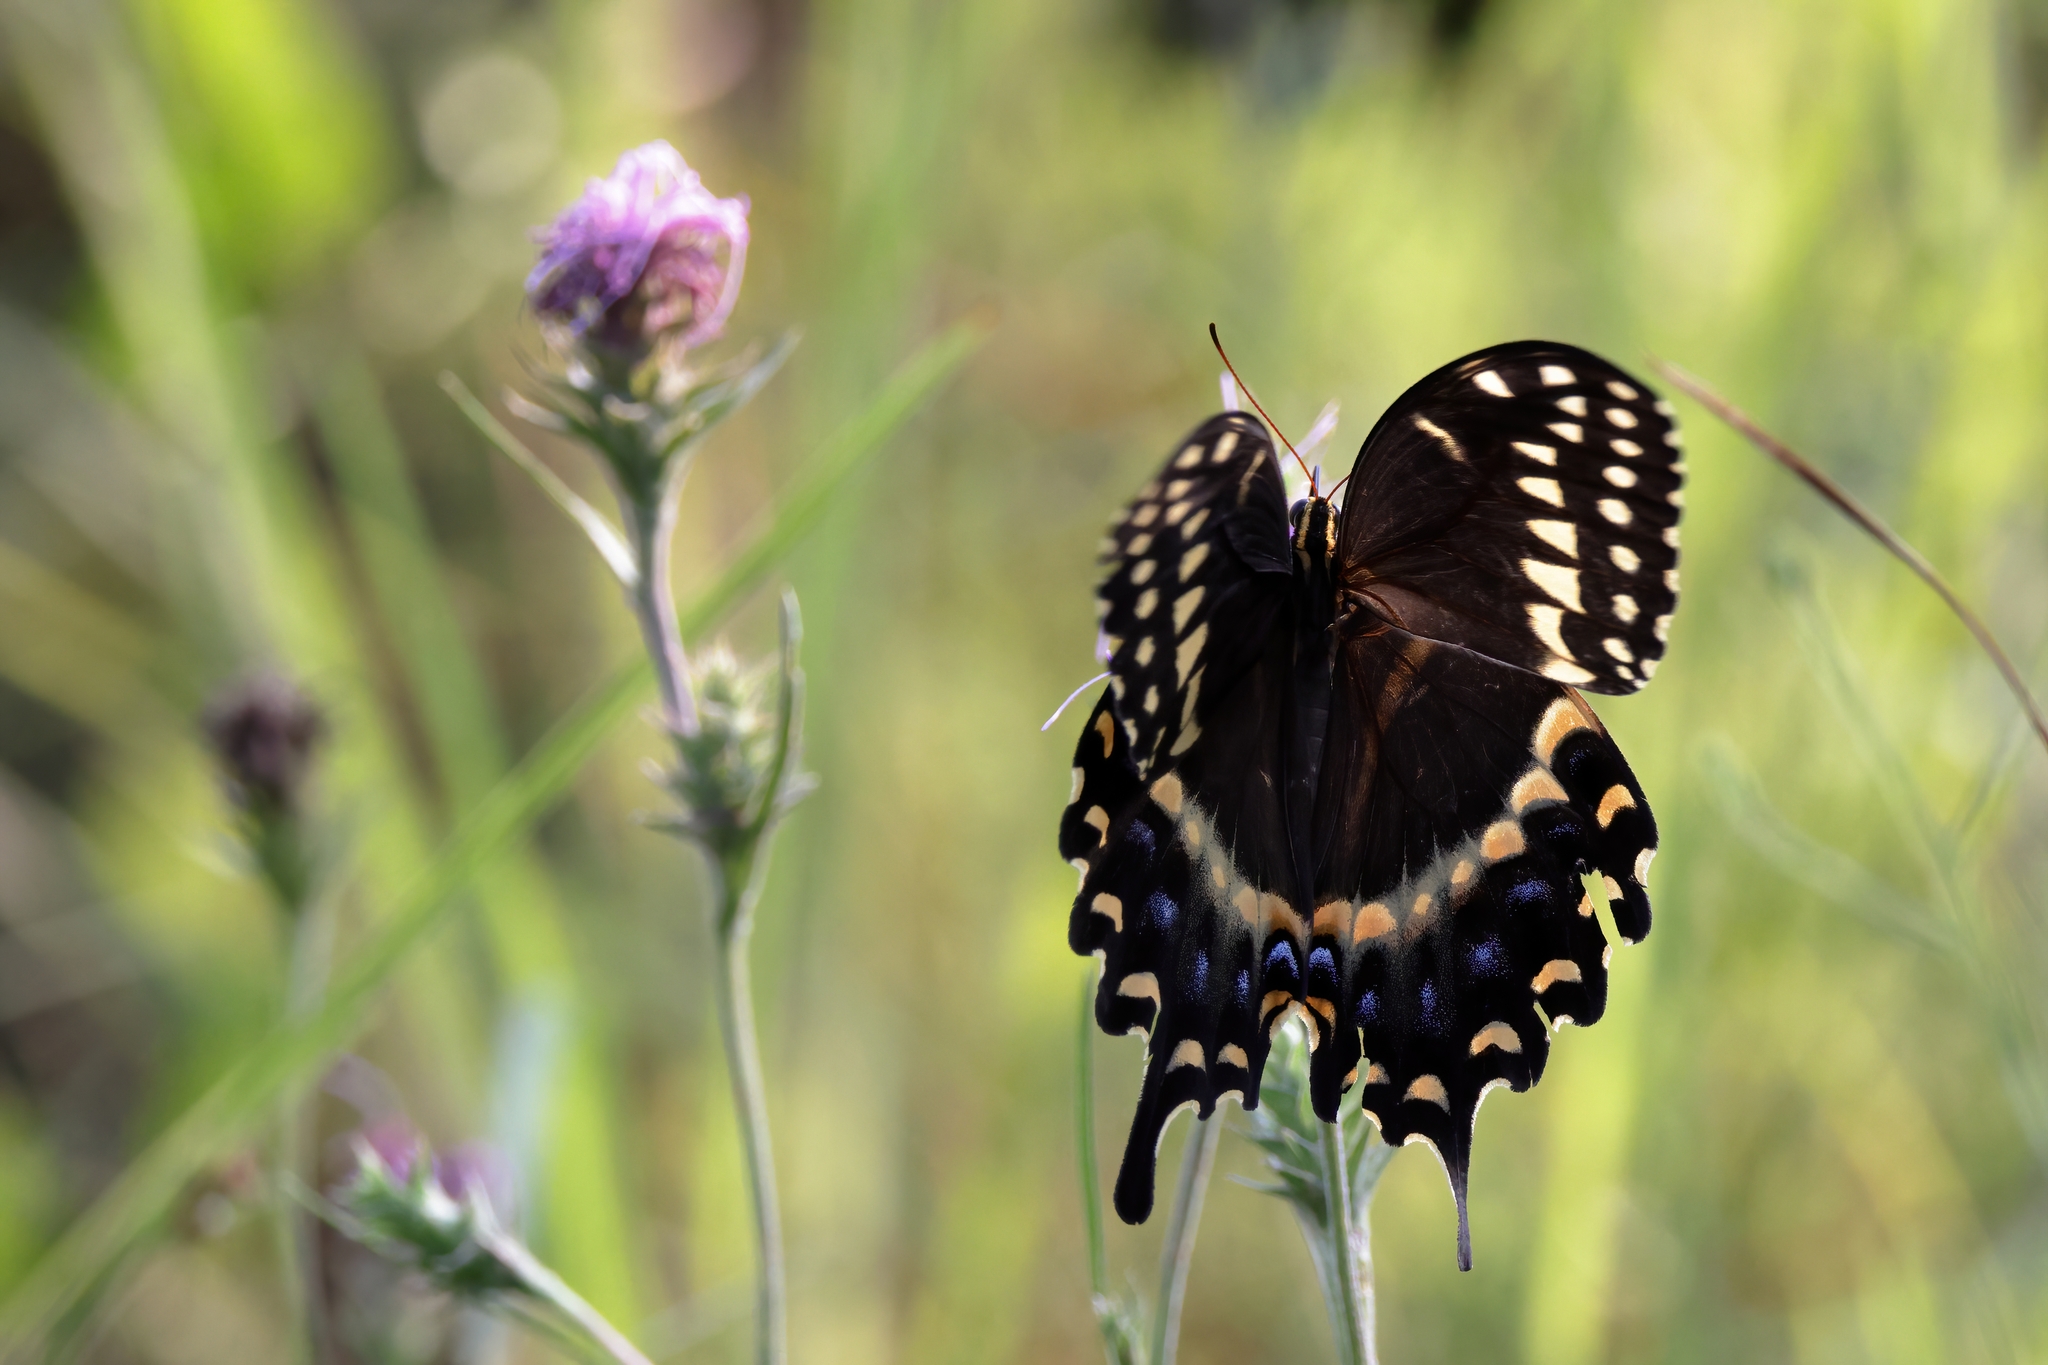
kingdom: Animalia
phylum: Arthropoda
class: Insecta
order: Lepidoptera
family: Papilionidae
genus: Papilio
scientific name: Papilio palamedes
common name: Palamedes swallowtail
